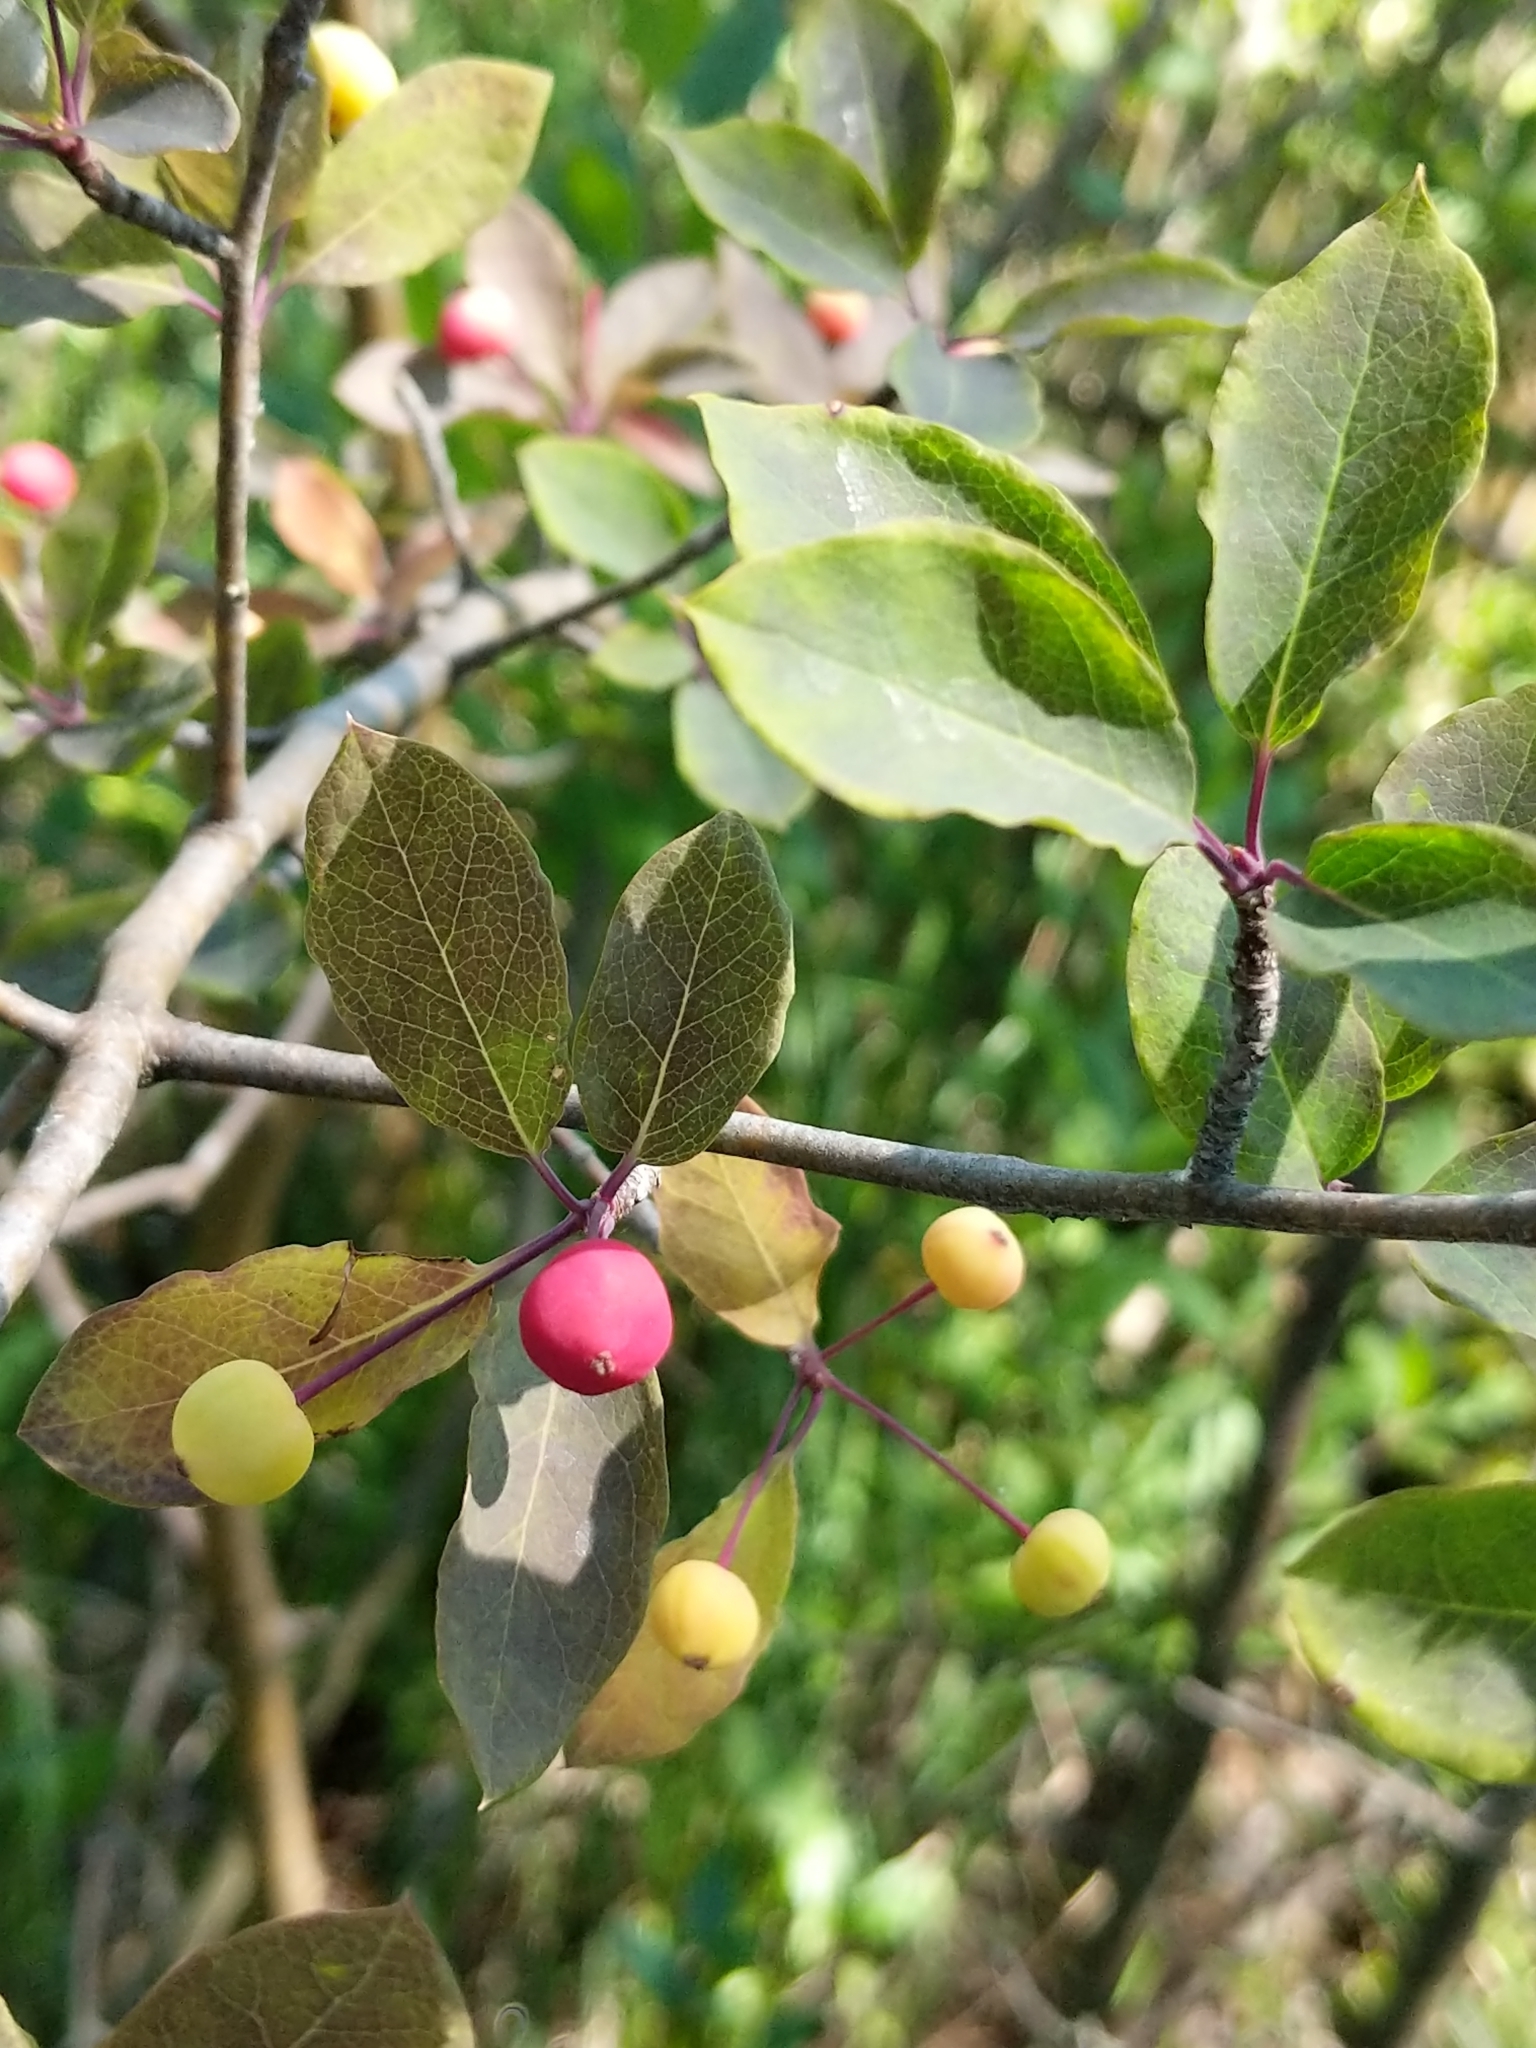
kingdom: Plantae
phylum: Tracheophyta
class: Magnoliopsida
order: Aquifoliales
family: Aquifoliaceae
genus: Ilex
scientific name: Ilex mucronata
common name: Catberry
